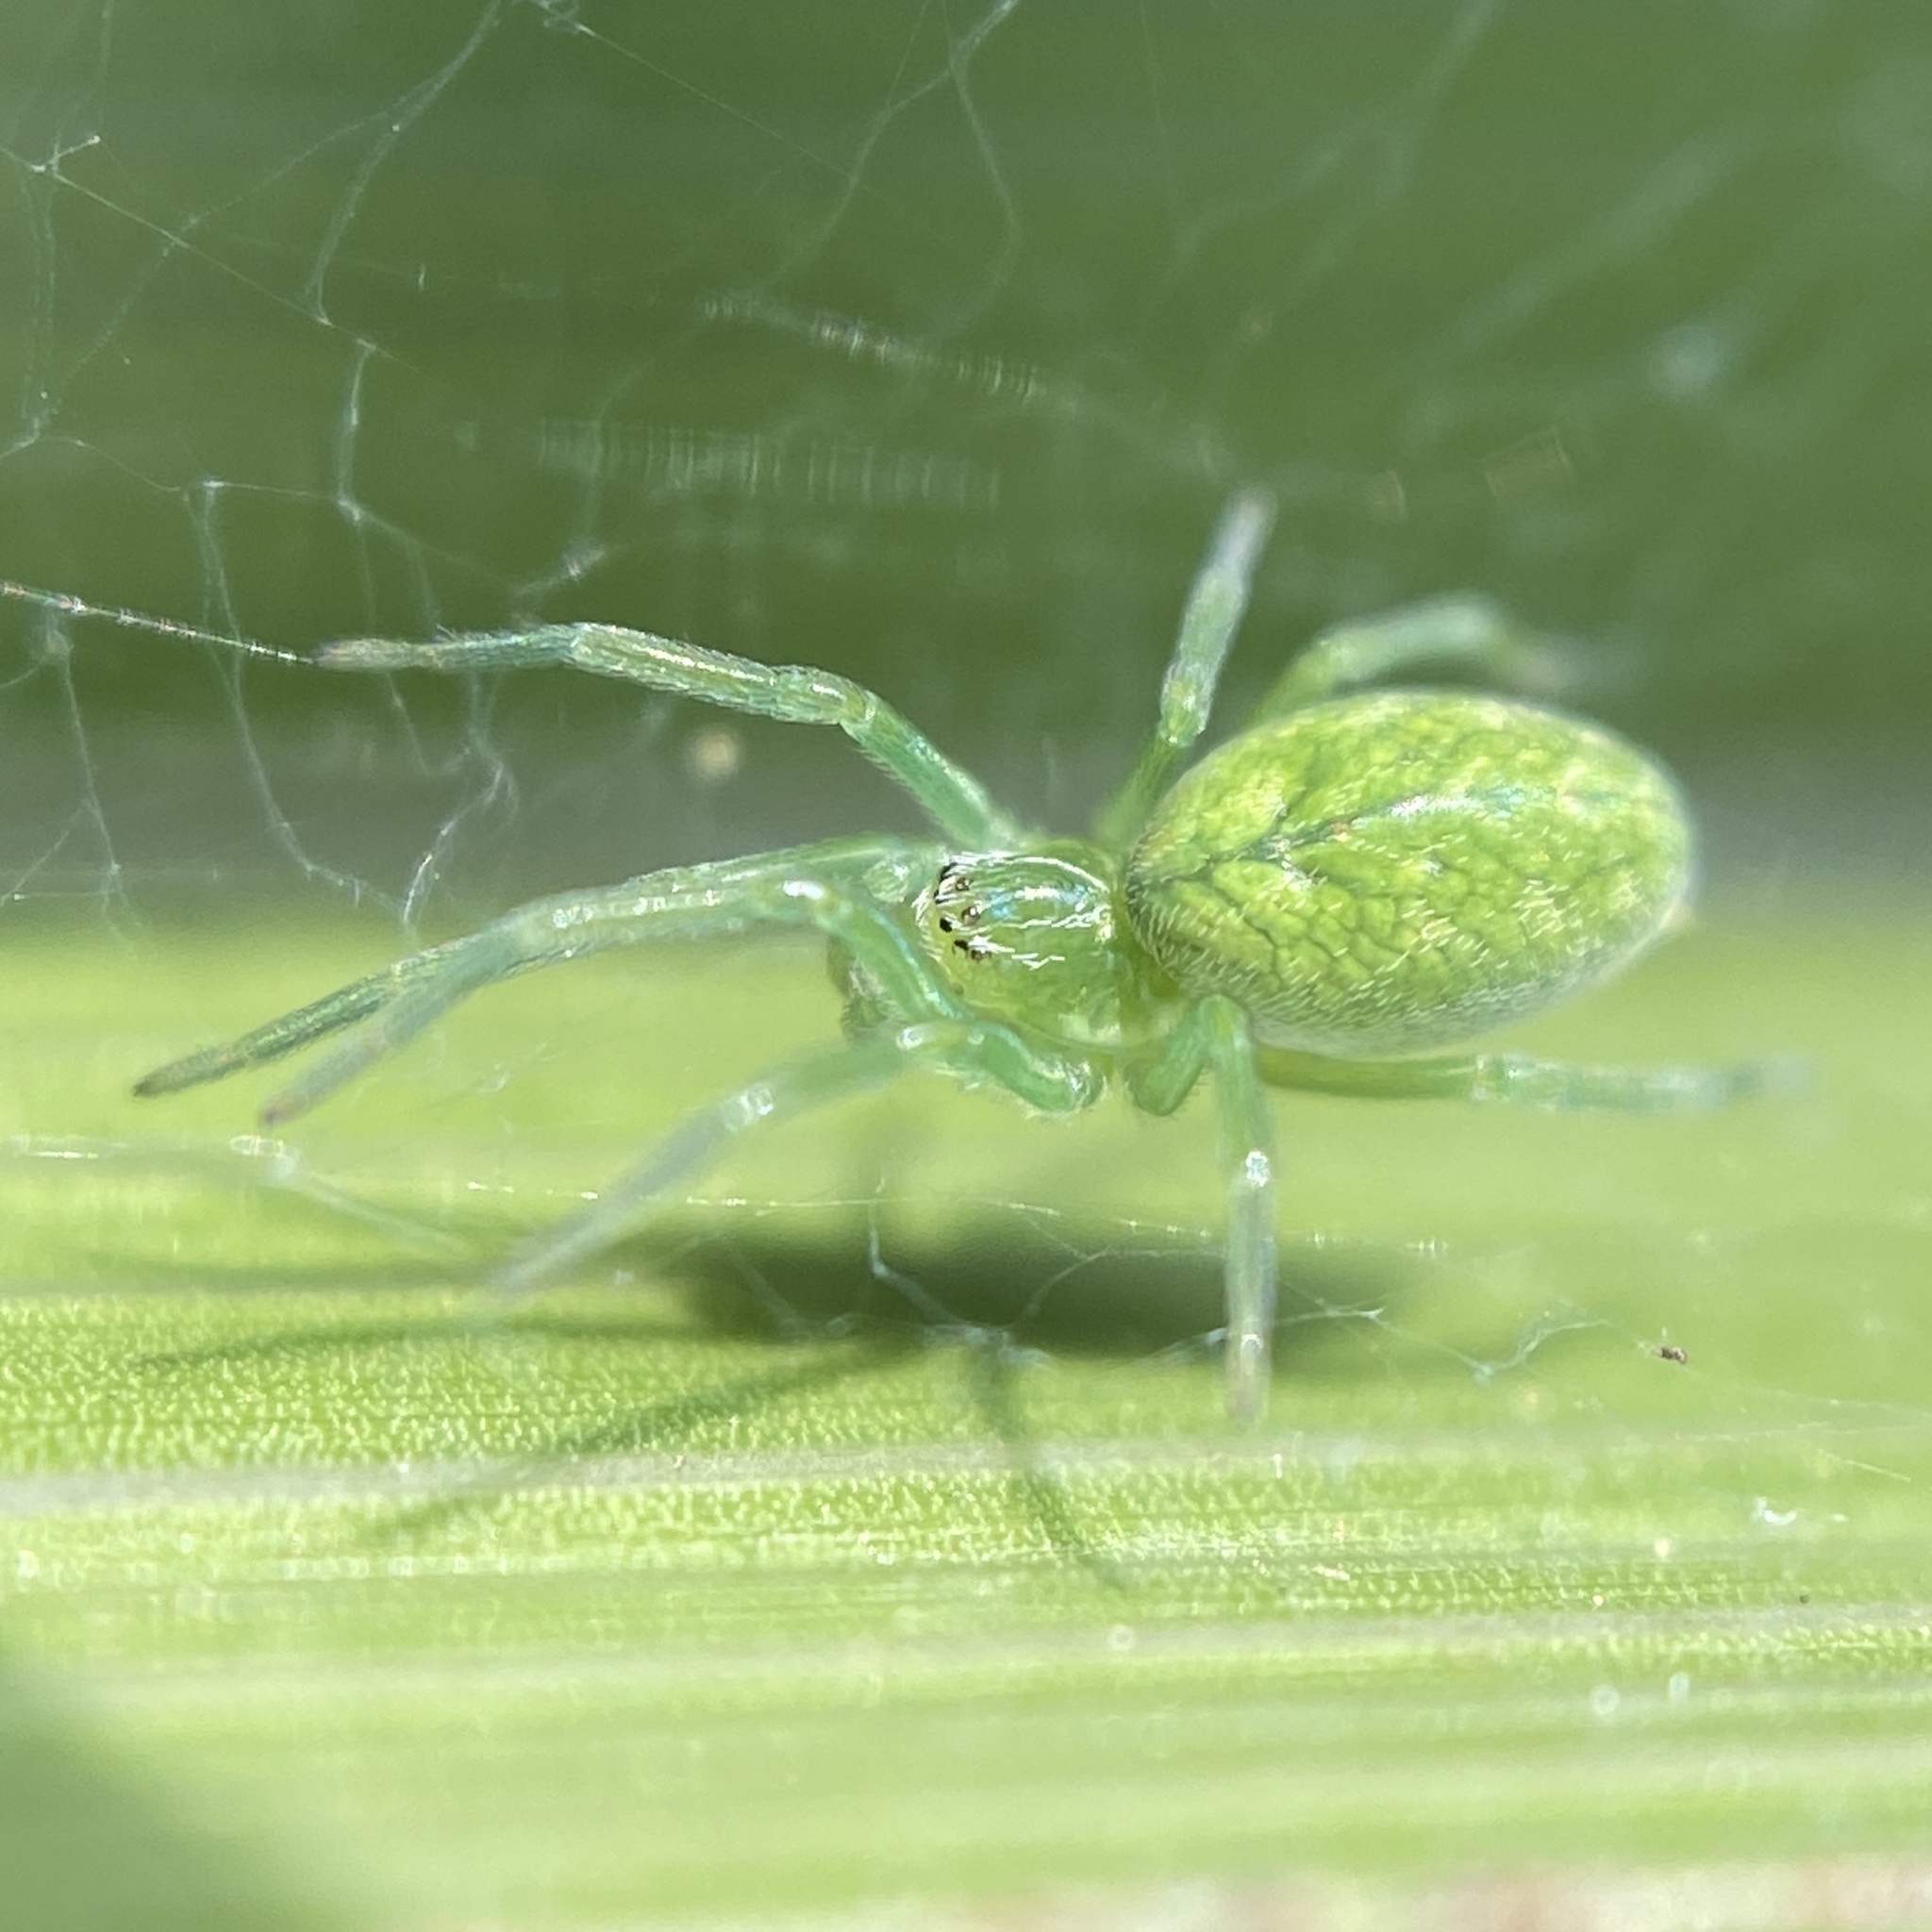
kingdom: Animalia
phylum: Arthropoda
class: Arachnida
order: Araneae
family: Dictynidae
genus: Nigma
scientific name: Nigma walckenaeri
